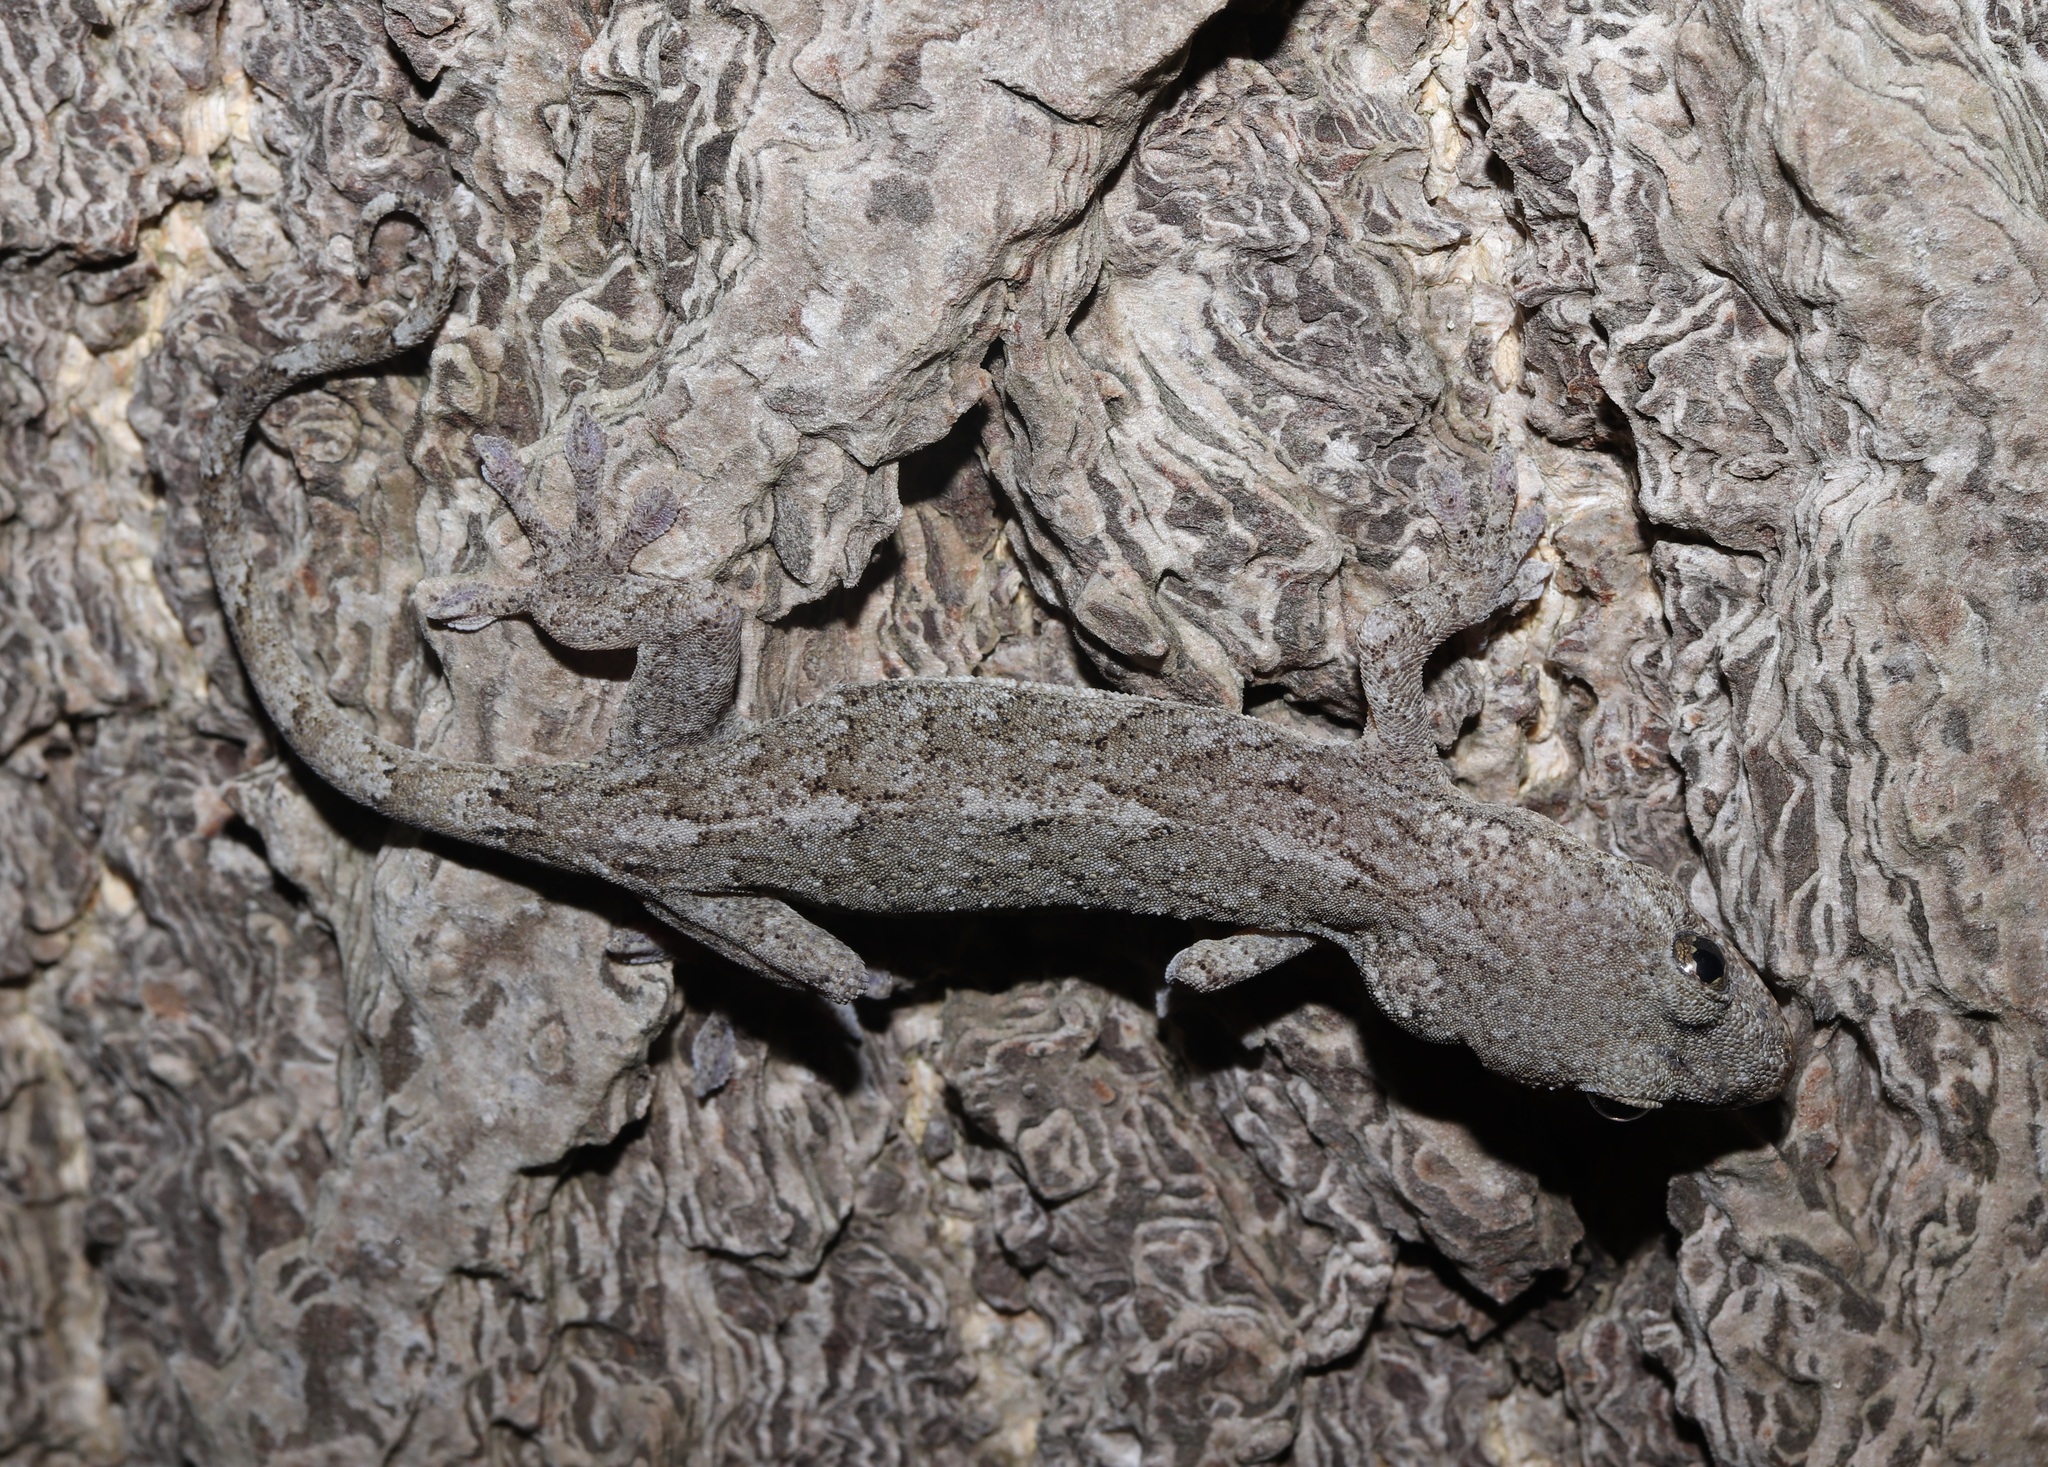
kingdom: Animalia
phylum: Chordata
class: Squamata
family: Gekkonidae
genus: Gekko
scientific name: Gekko japonicus
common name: Schlegel's japanese gecko
